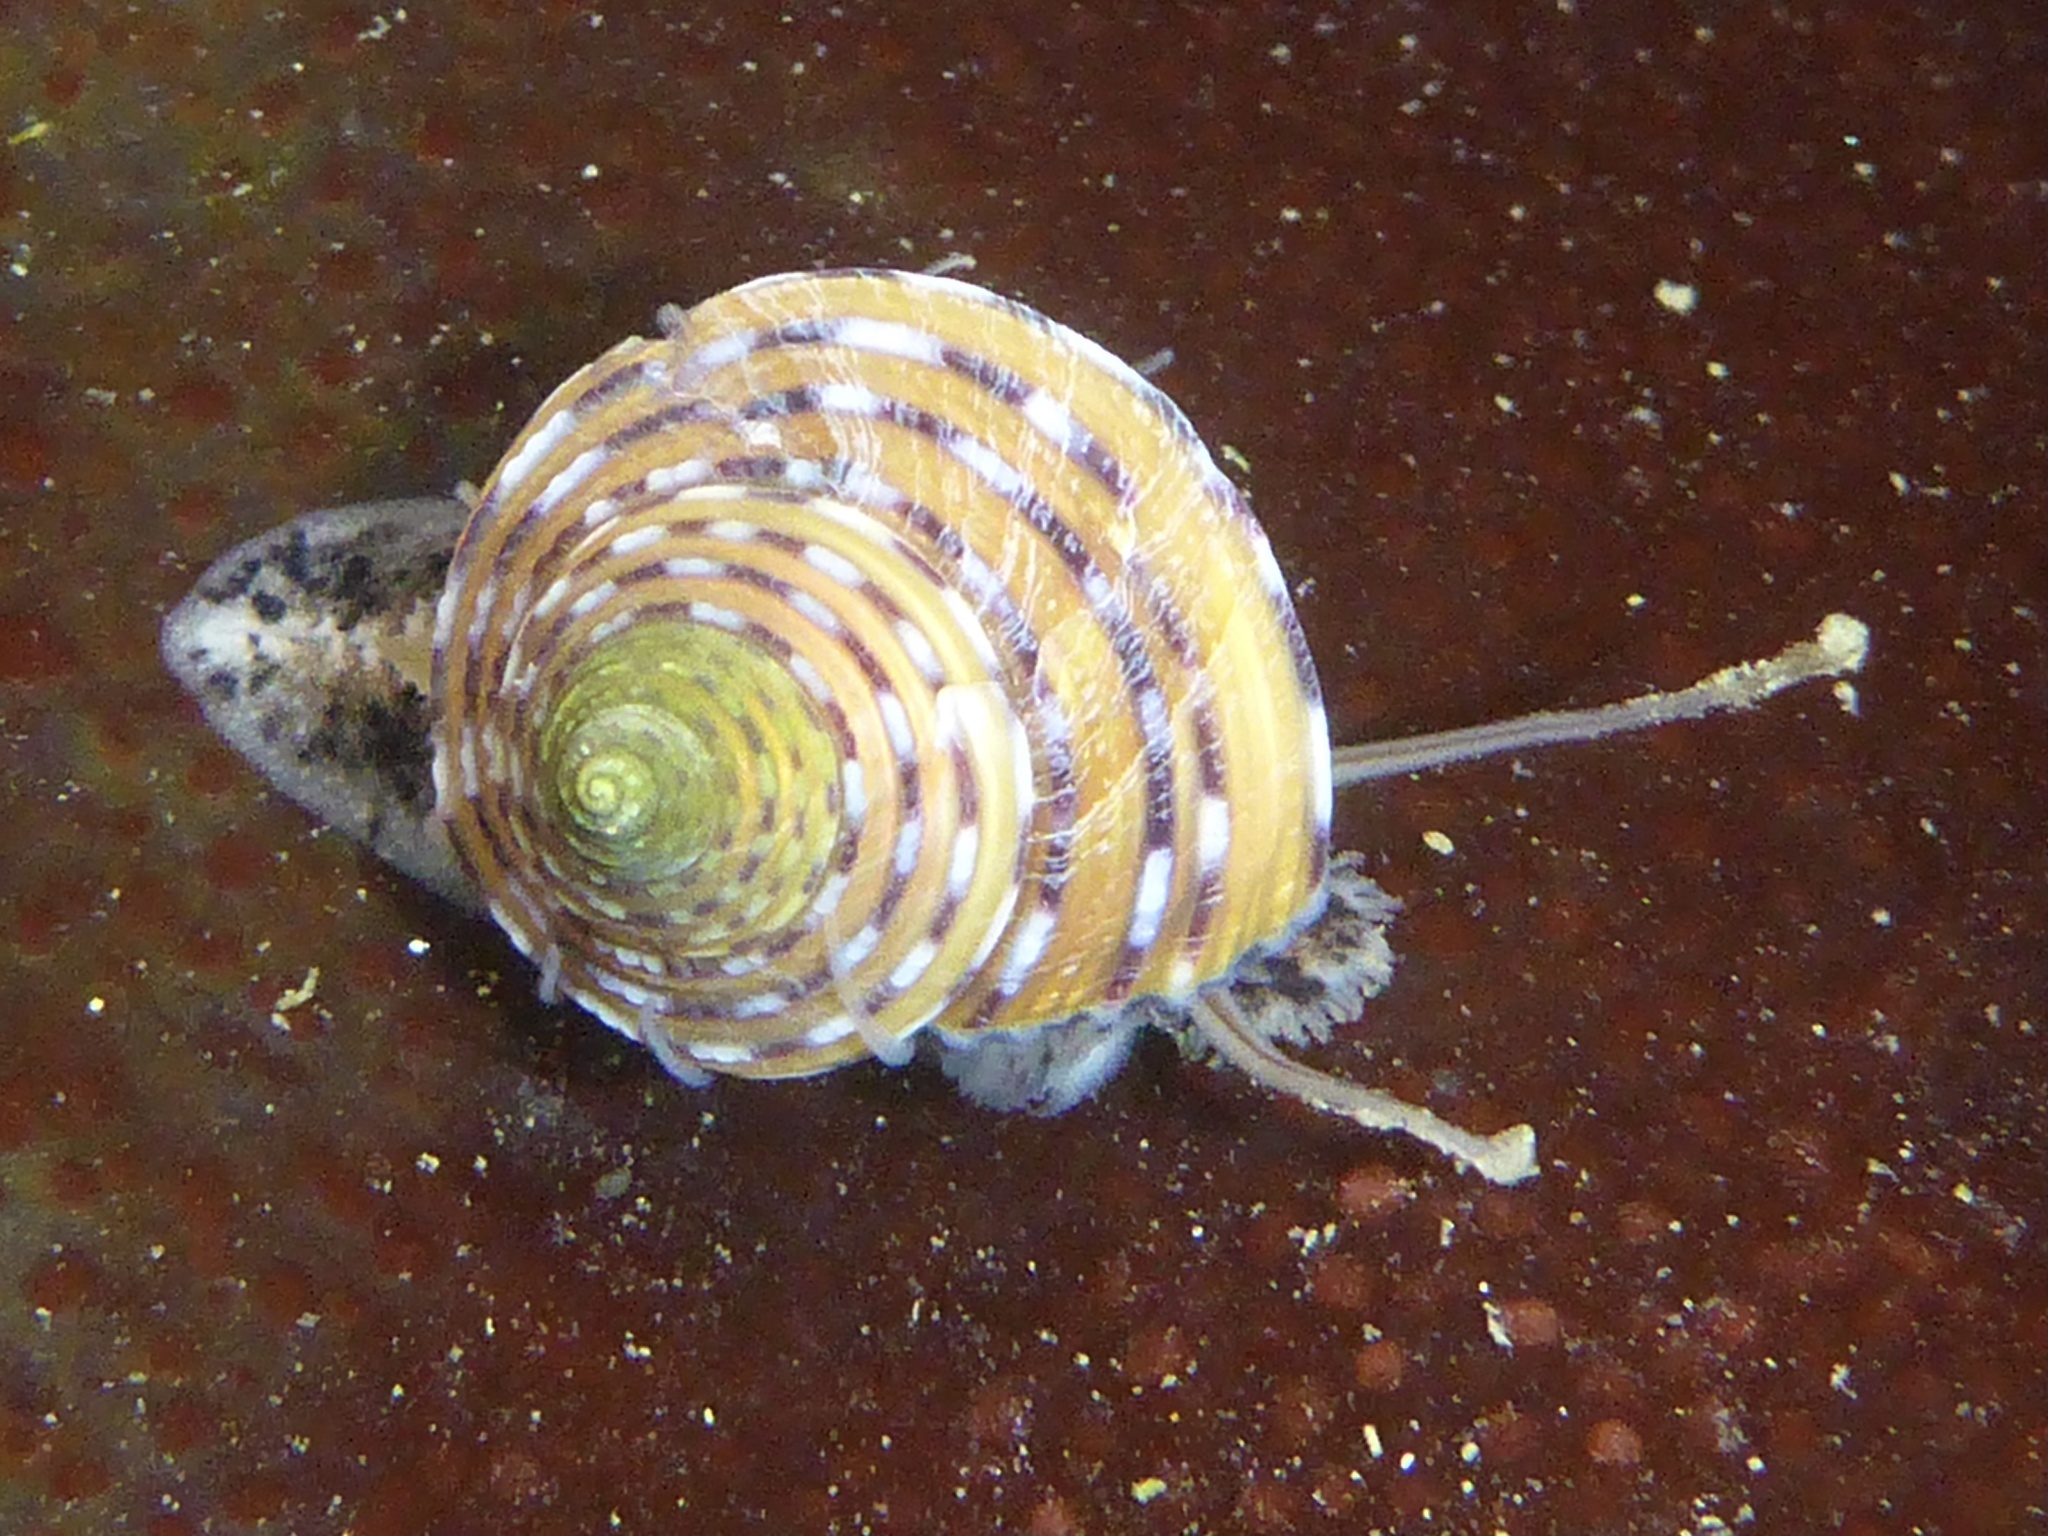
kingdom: Animalia
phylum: Mollusca
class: Gastropoda
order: Trochida
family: Calliostomatidae
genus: Calliostoma
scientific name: Calliostoma tricolor
